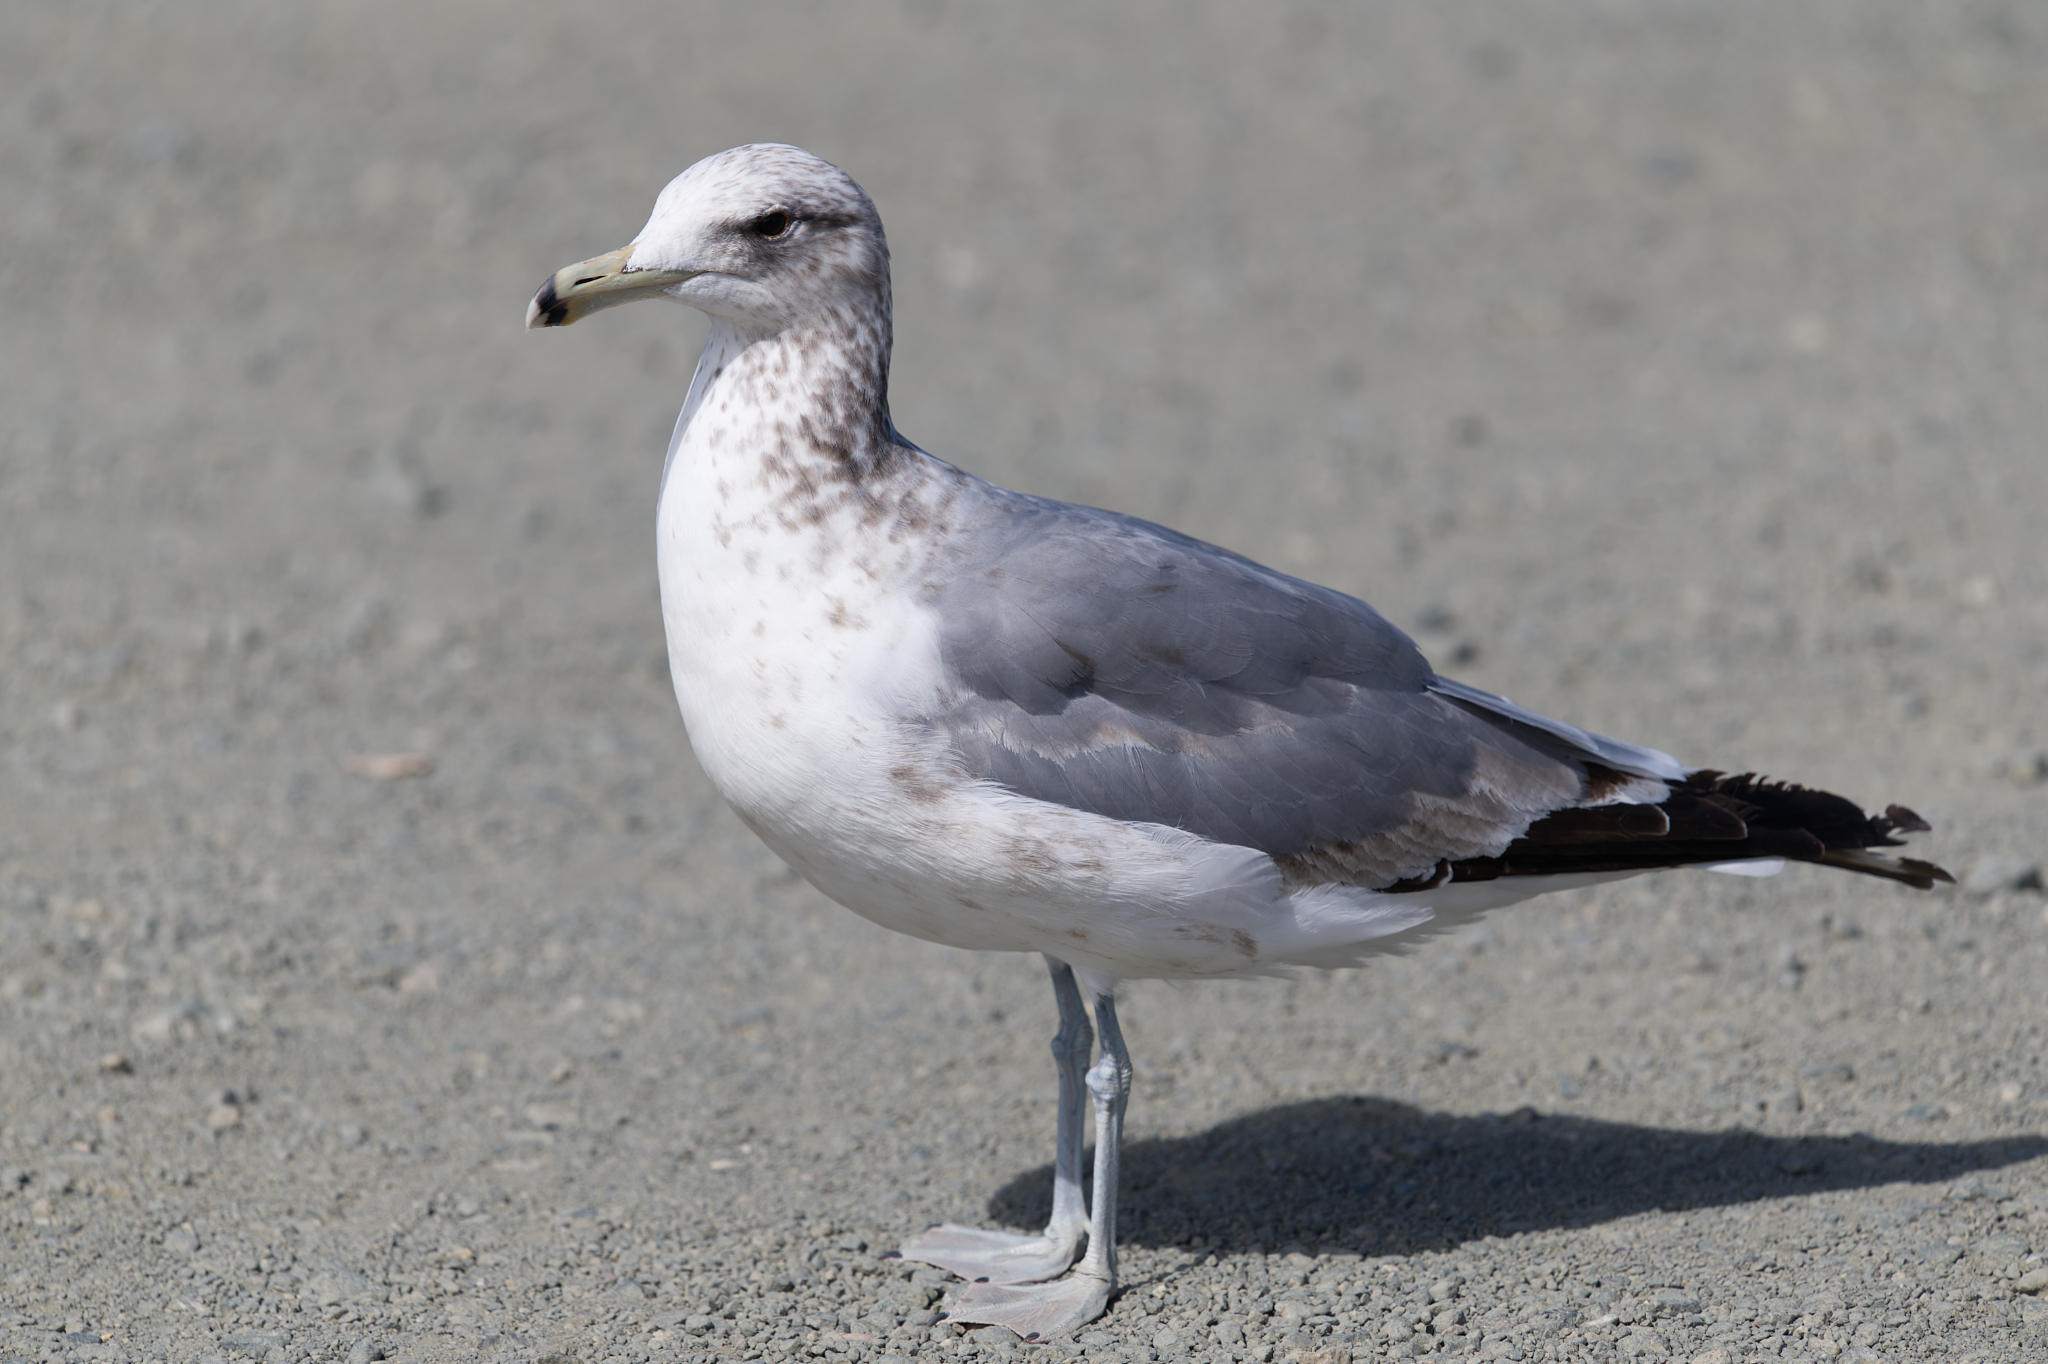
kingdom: Animalia
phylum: Chordata
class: Aves
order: Charadriiformes
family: Laridae
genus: Larus
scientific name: Larus californicus
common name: California gull
